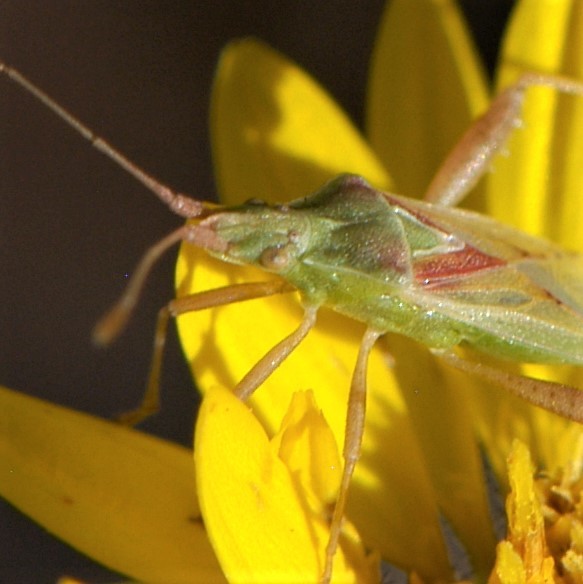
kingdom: Animalia
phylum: Arthropoda
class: Insecta
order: Hemiptera
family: Rhopalidae
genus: Harmostes
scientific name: Harmostes reflexulus
